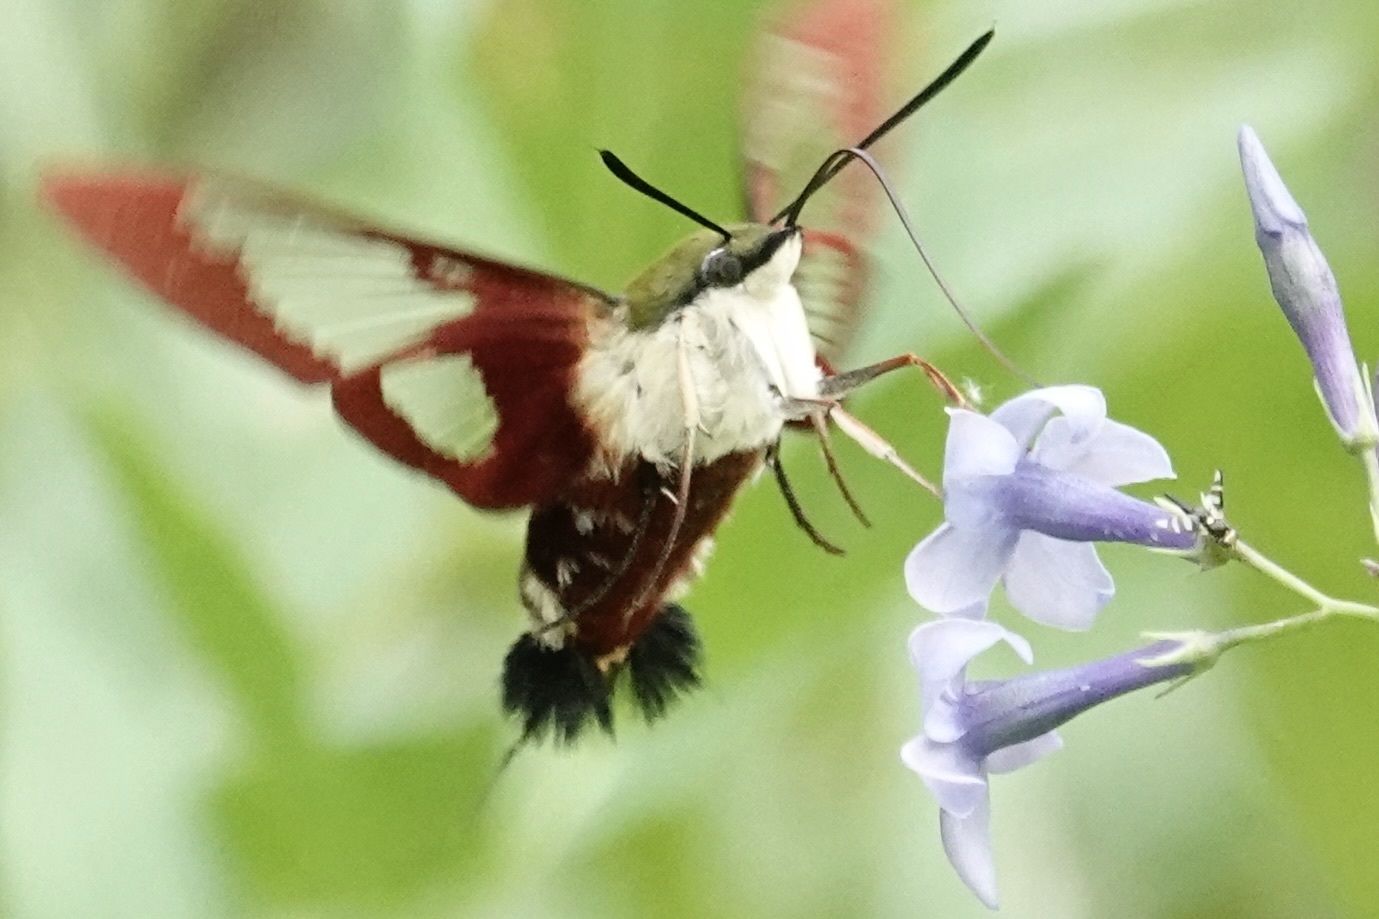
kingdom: Animalia
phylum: Arthropoda
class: Insecta
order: Lepidoptera
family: Sphingidae
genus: Hemaris
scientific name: Hemaris thysbe
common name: Common clear-wing
